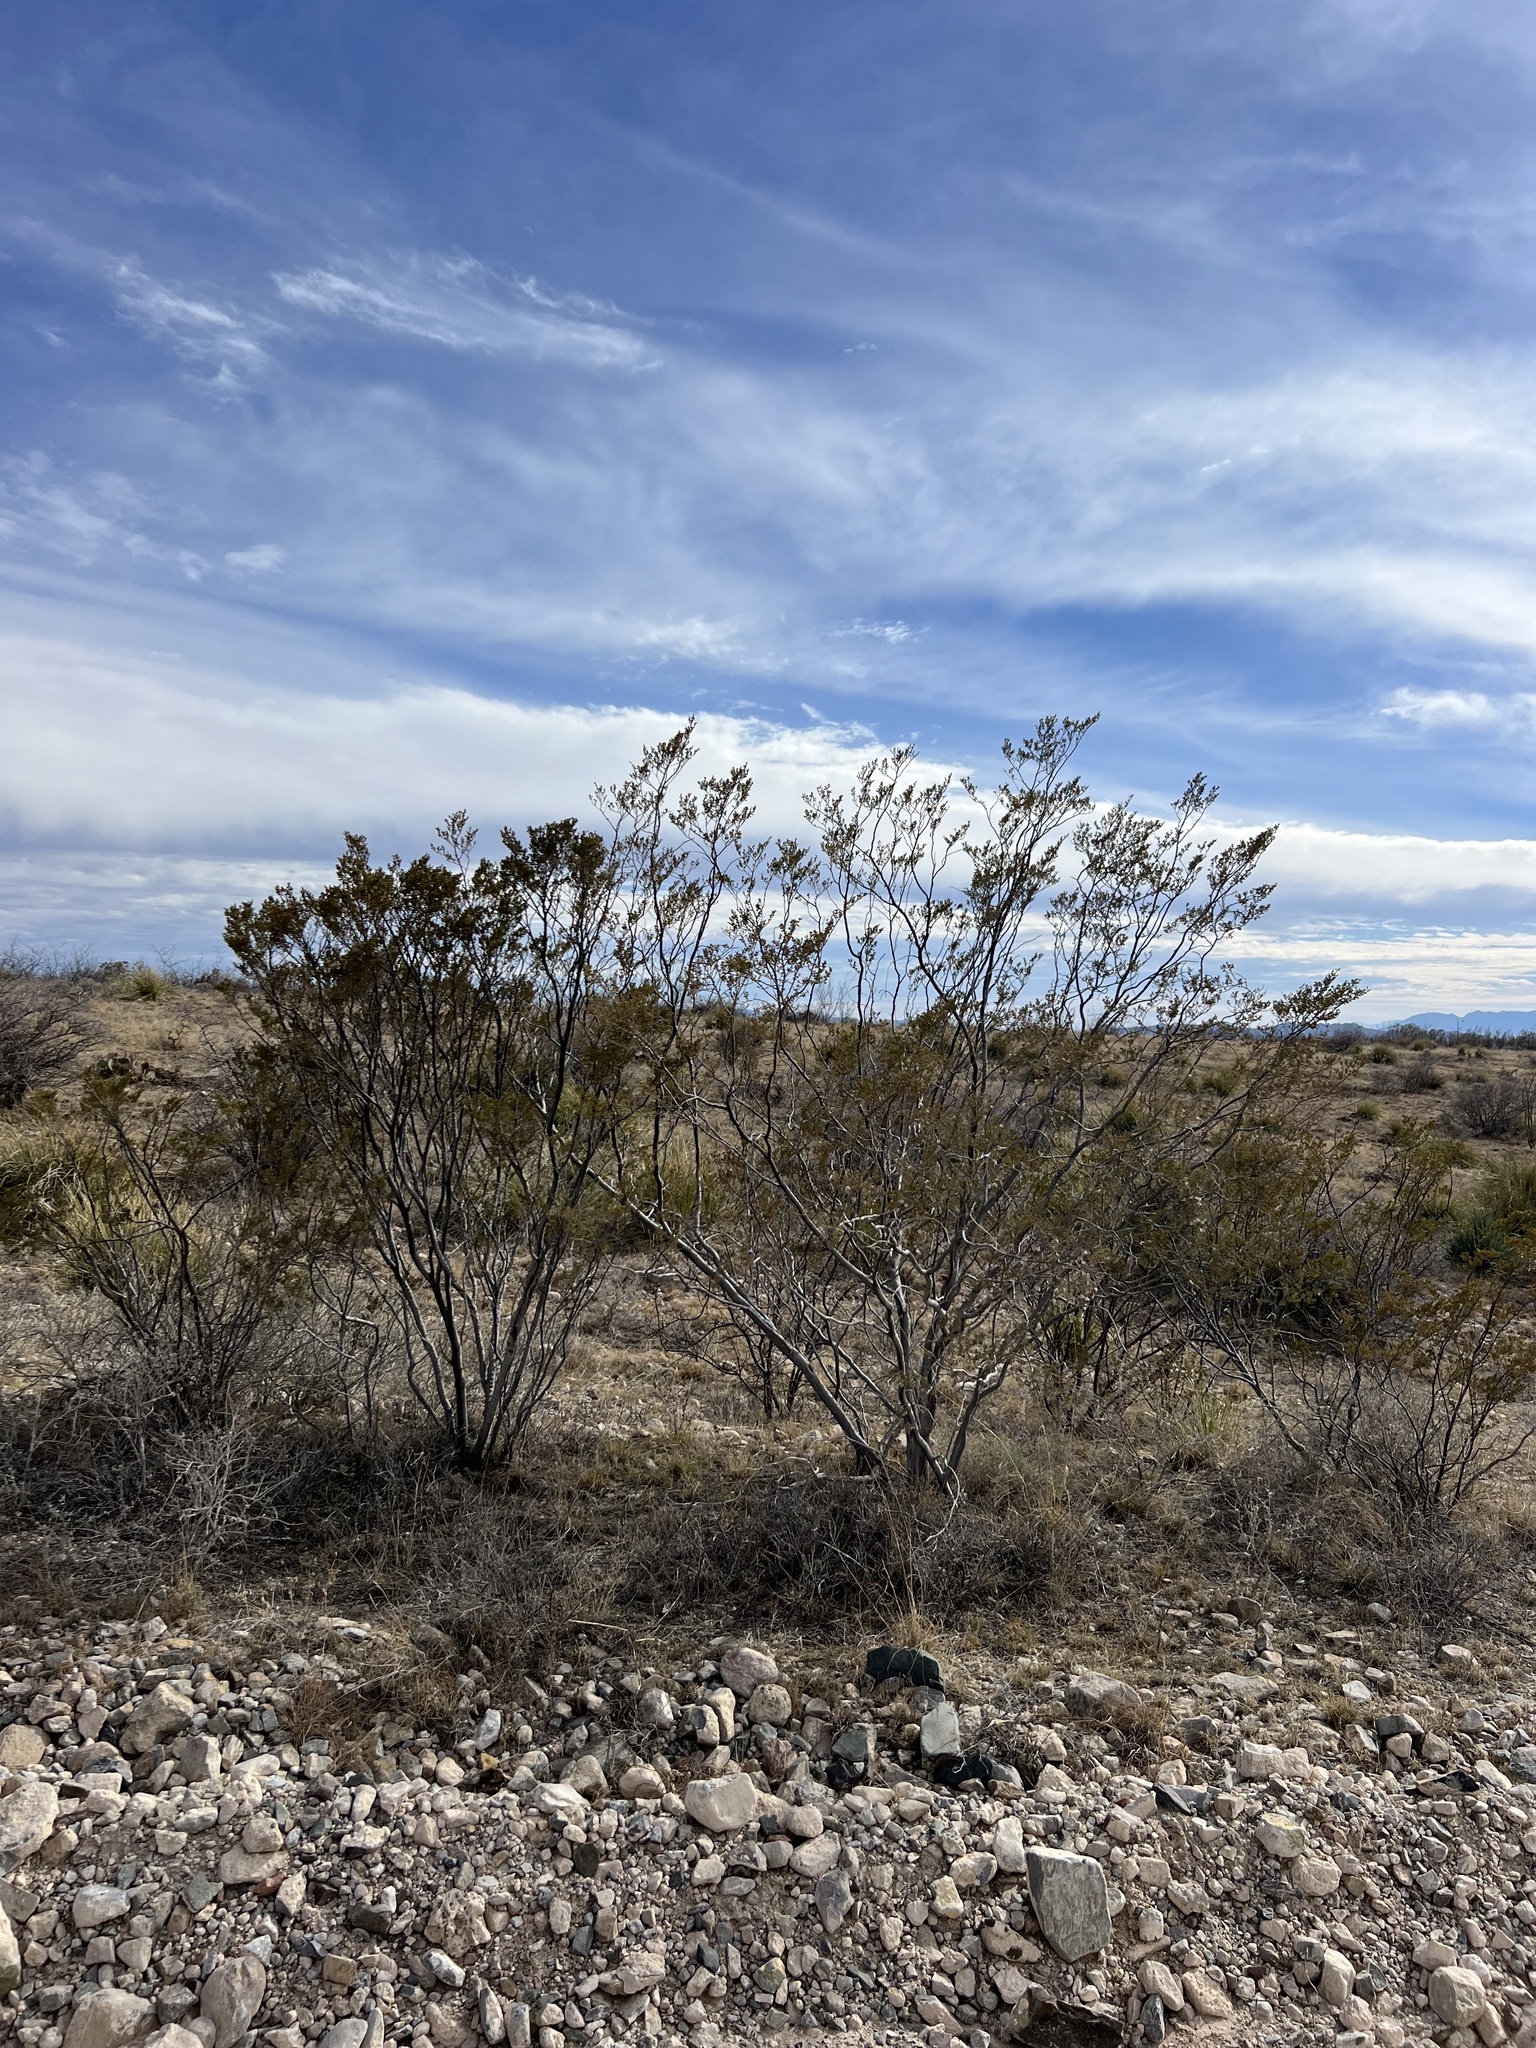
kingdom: Plantae
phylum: Tracheophyta
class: Magnoliopsida
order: Zygophyllales
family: Zygophyllaceae
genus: Larrea
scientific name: Larrea tridentata
